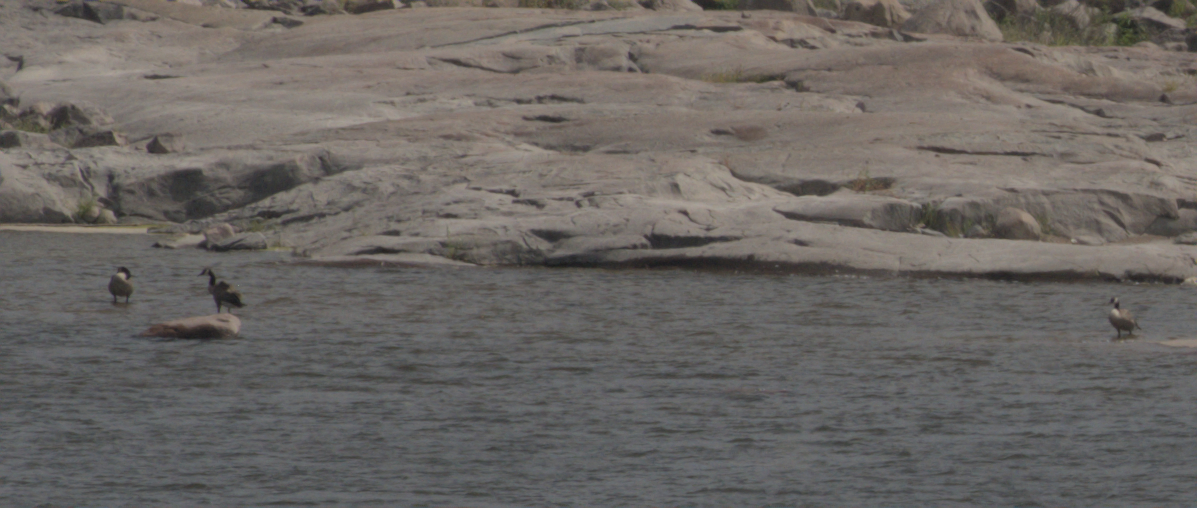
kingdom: Animalia
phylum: Chordata
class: Aves
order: Anseriformes
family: Anatidae
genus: Branta
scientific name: Branta canadensis
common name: Canada goose
